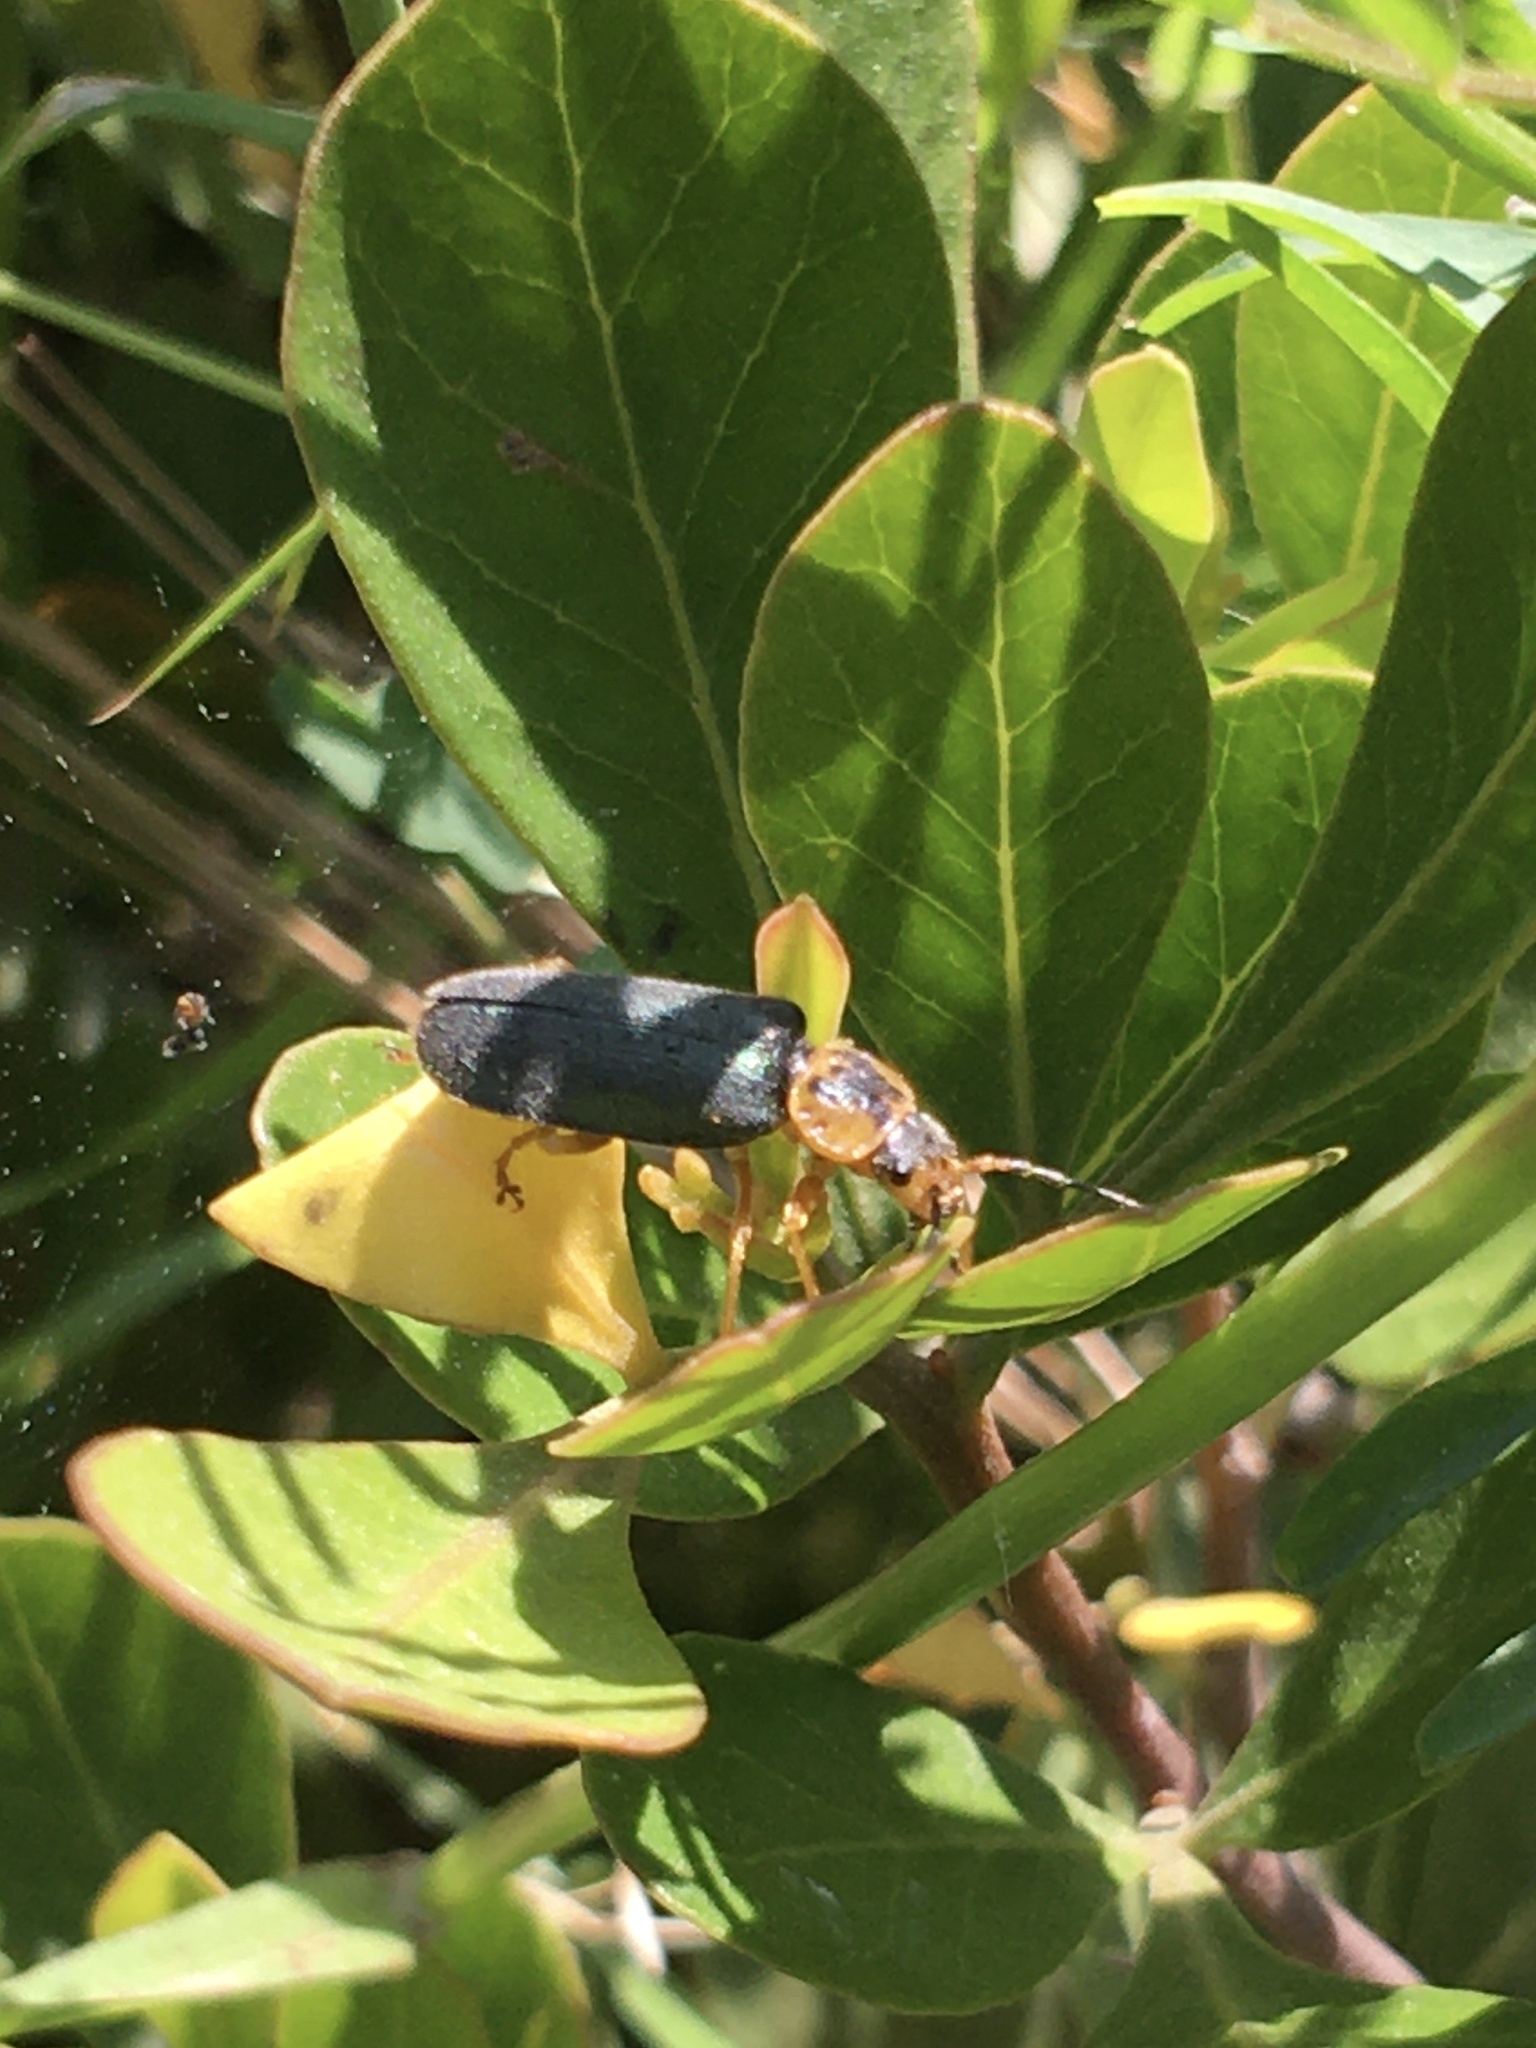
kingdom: Animalia
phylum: Arthropoda
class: Insecta
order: Coleoptera
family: Cantharidae
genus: Afronycha
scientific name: Afronycha
